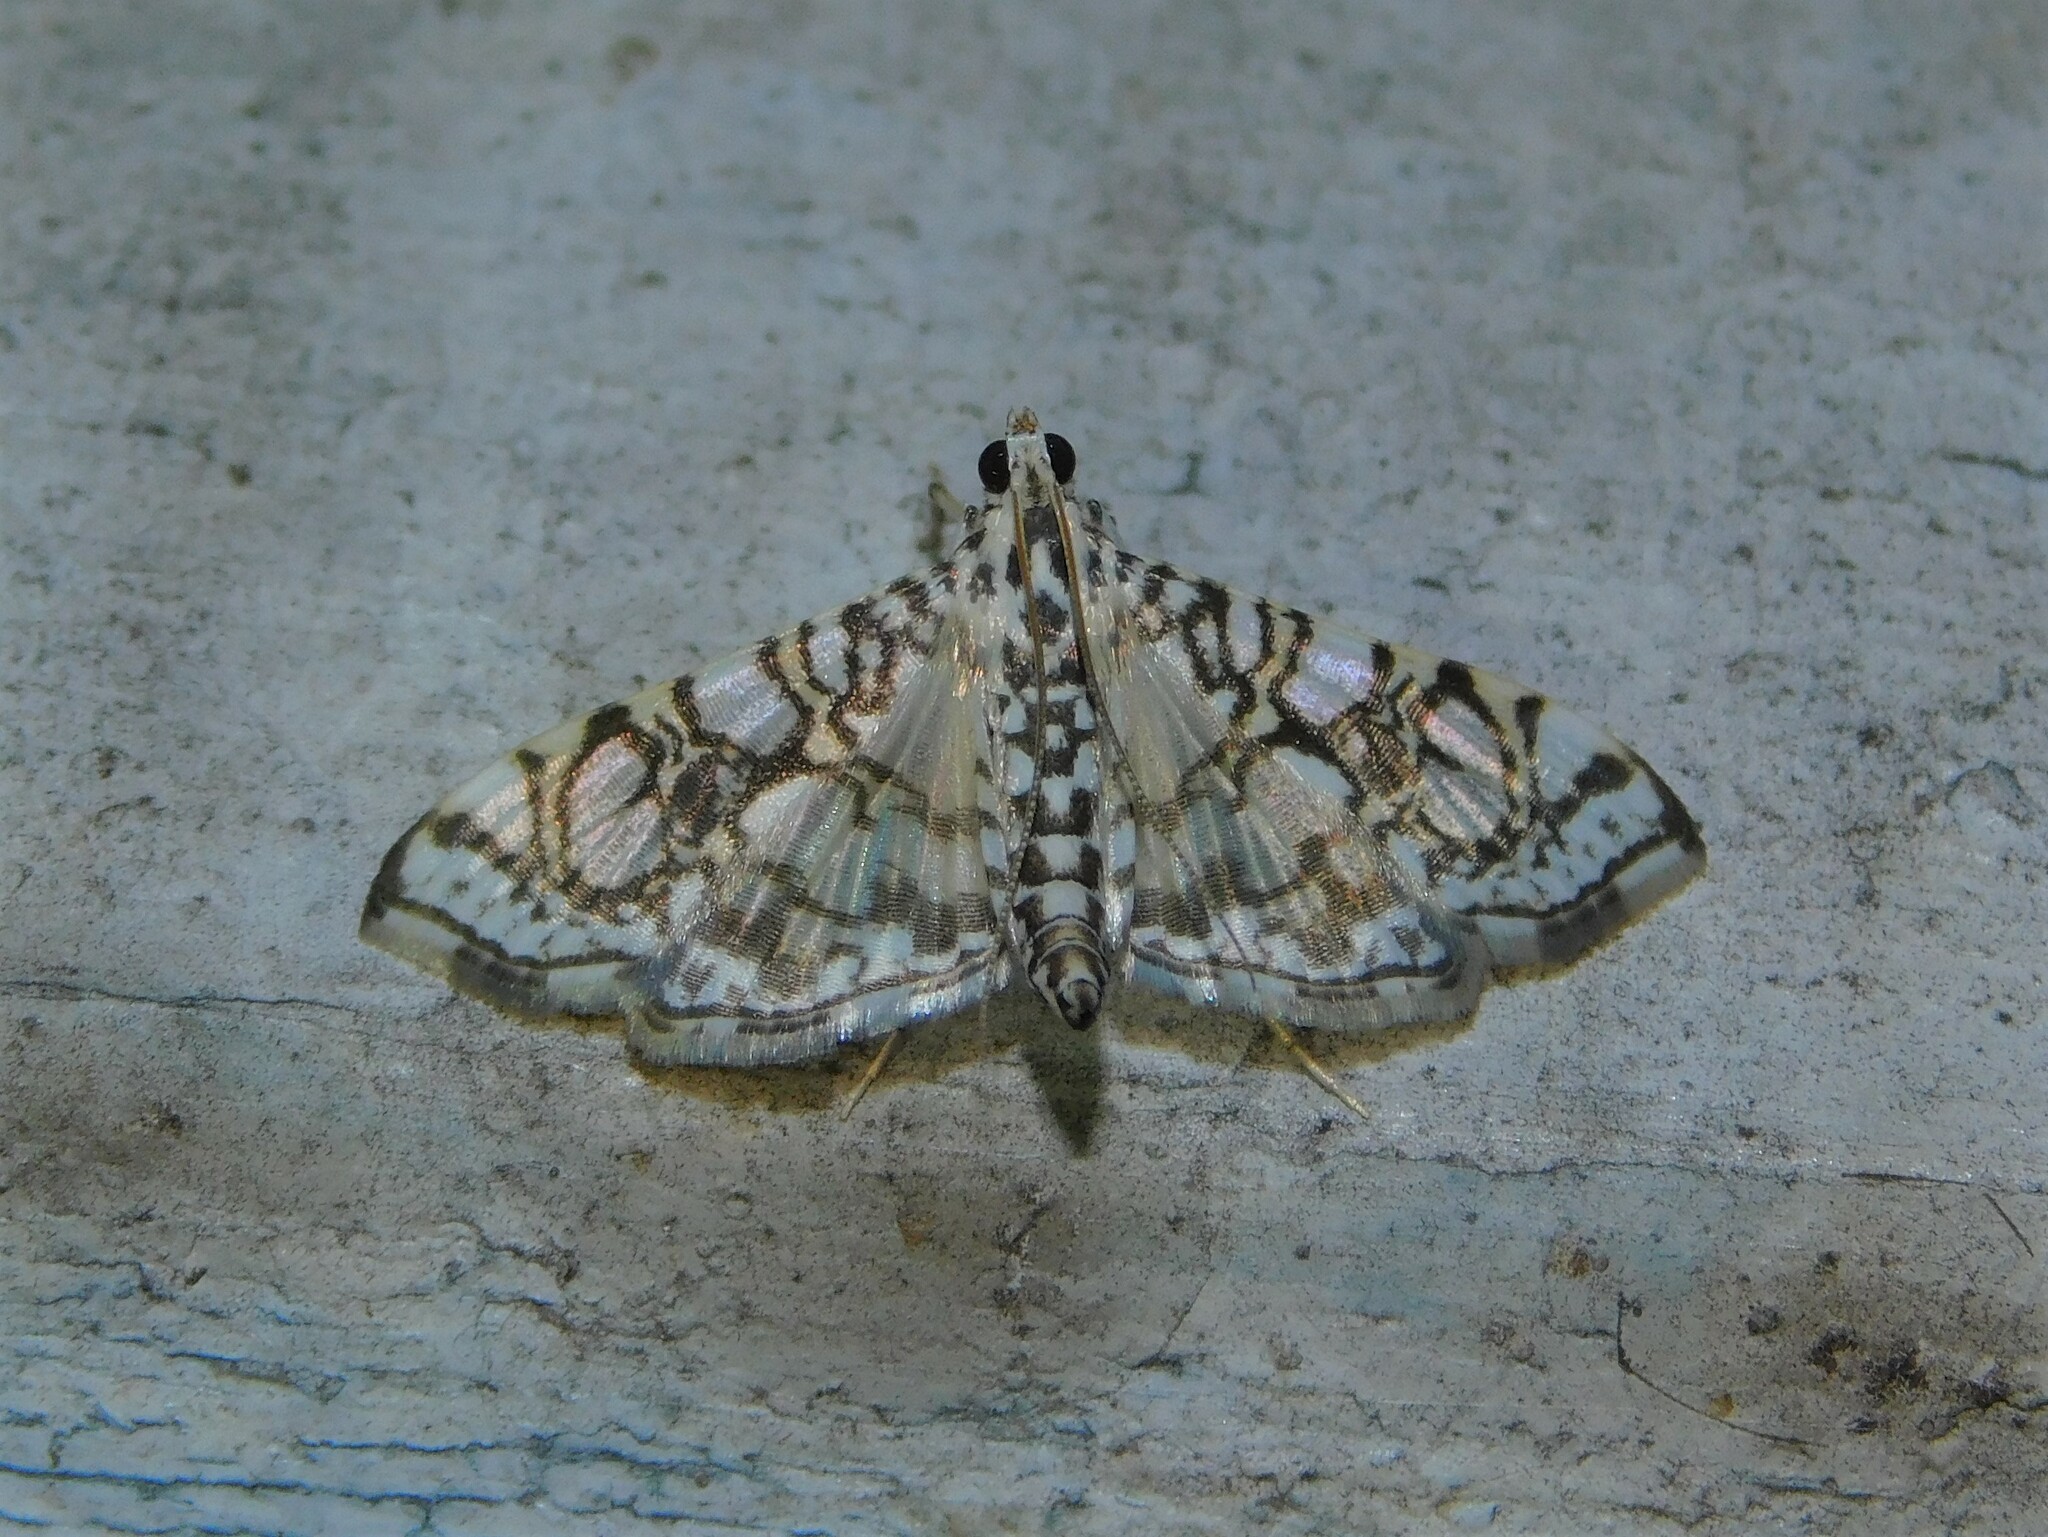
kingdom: Animalia
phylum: Arthropoda
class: Insecta
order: Lepidoptera
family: Crambidae
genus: Glyphodes
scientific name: Glyphodes onychinalis
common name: Swan plant moth
